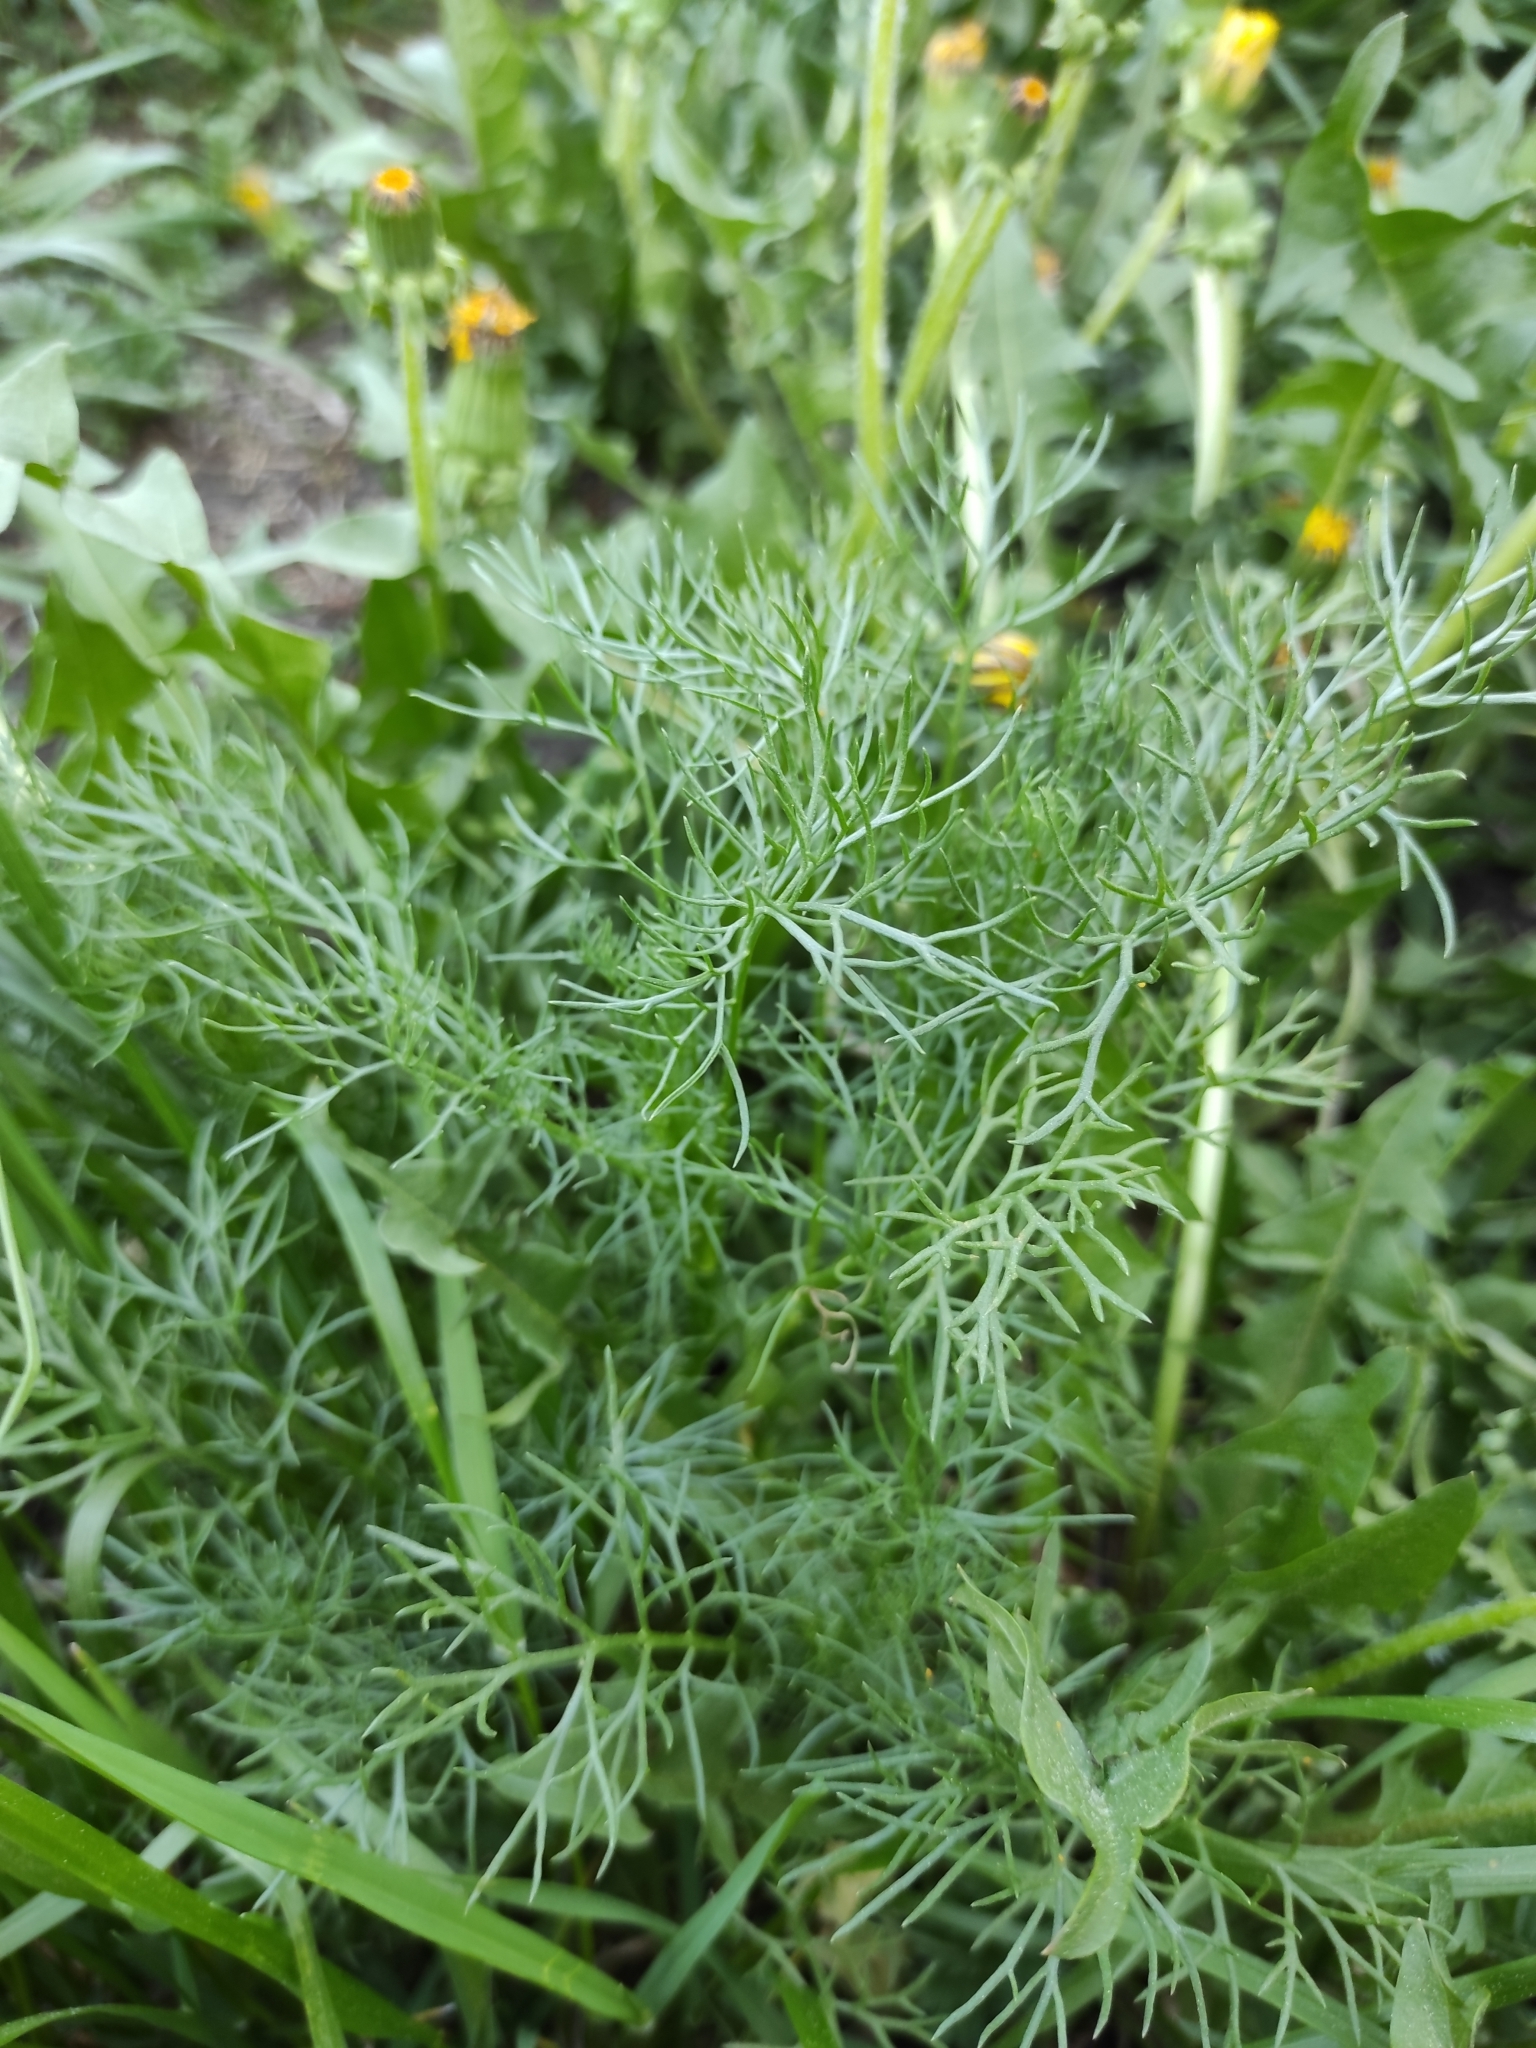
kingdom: Plantae
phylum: Tracheophyta
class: Magnoliopsida
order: Asterales
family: Asteraceae
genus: Tripleurospermum
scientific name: Tripleurospermum inodorum
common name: Scentless mayweed
